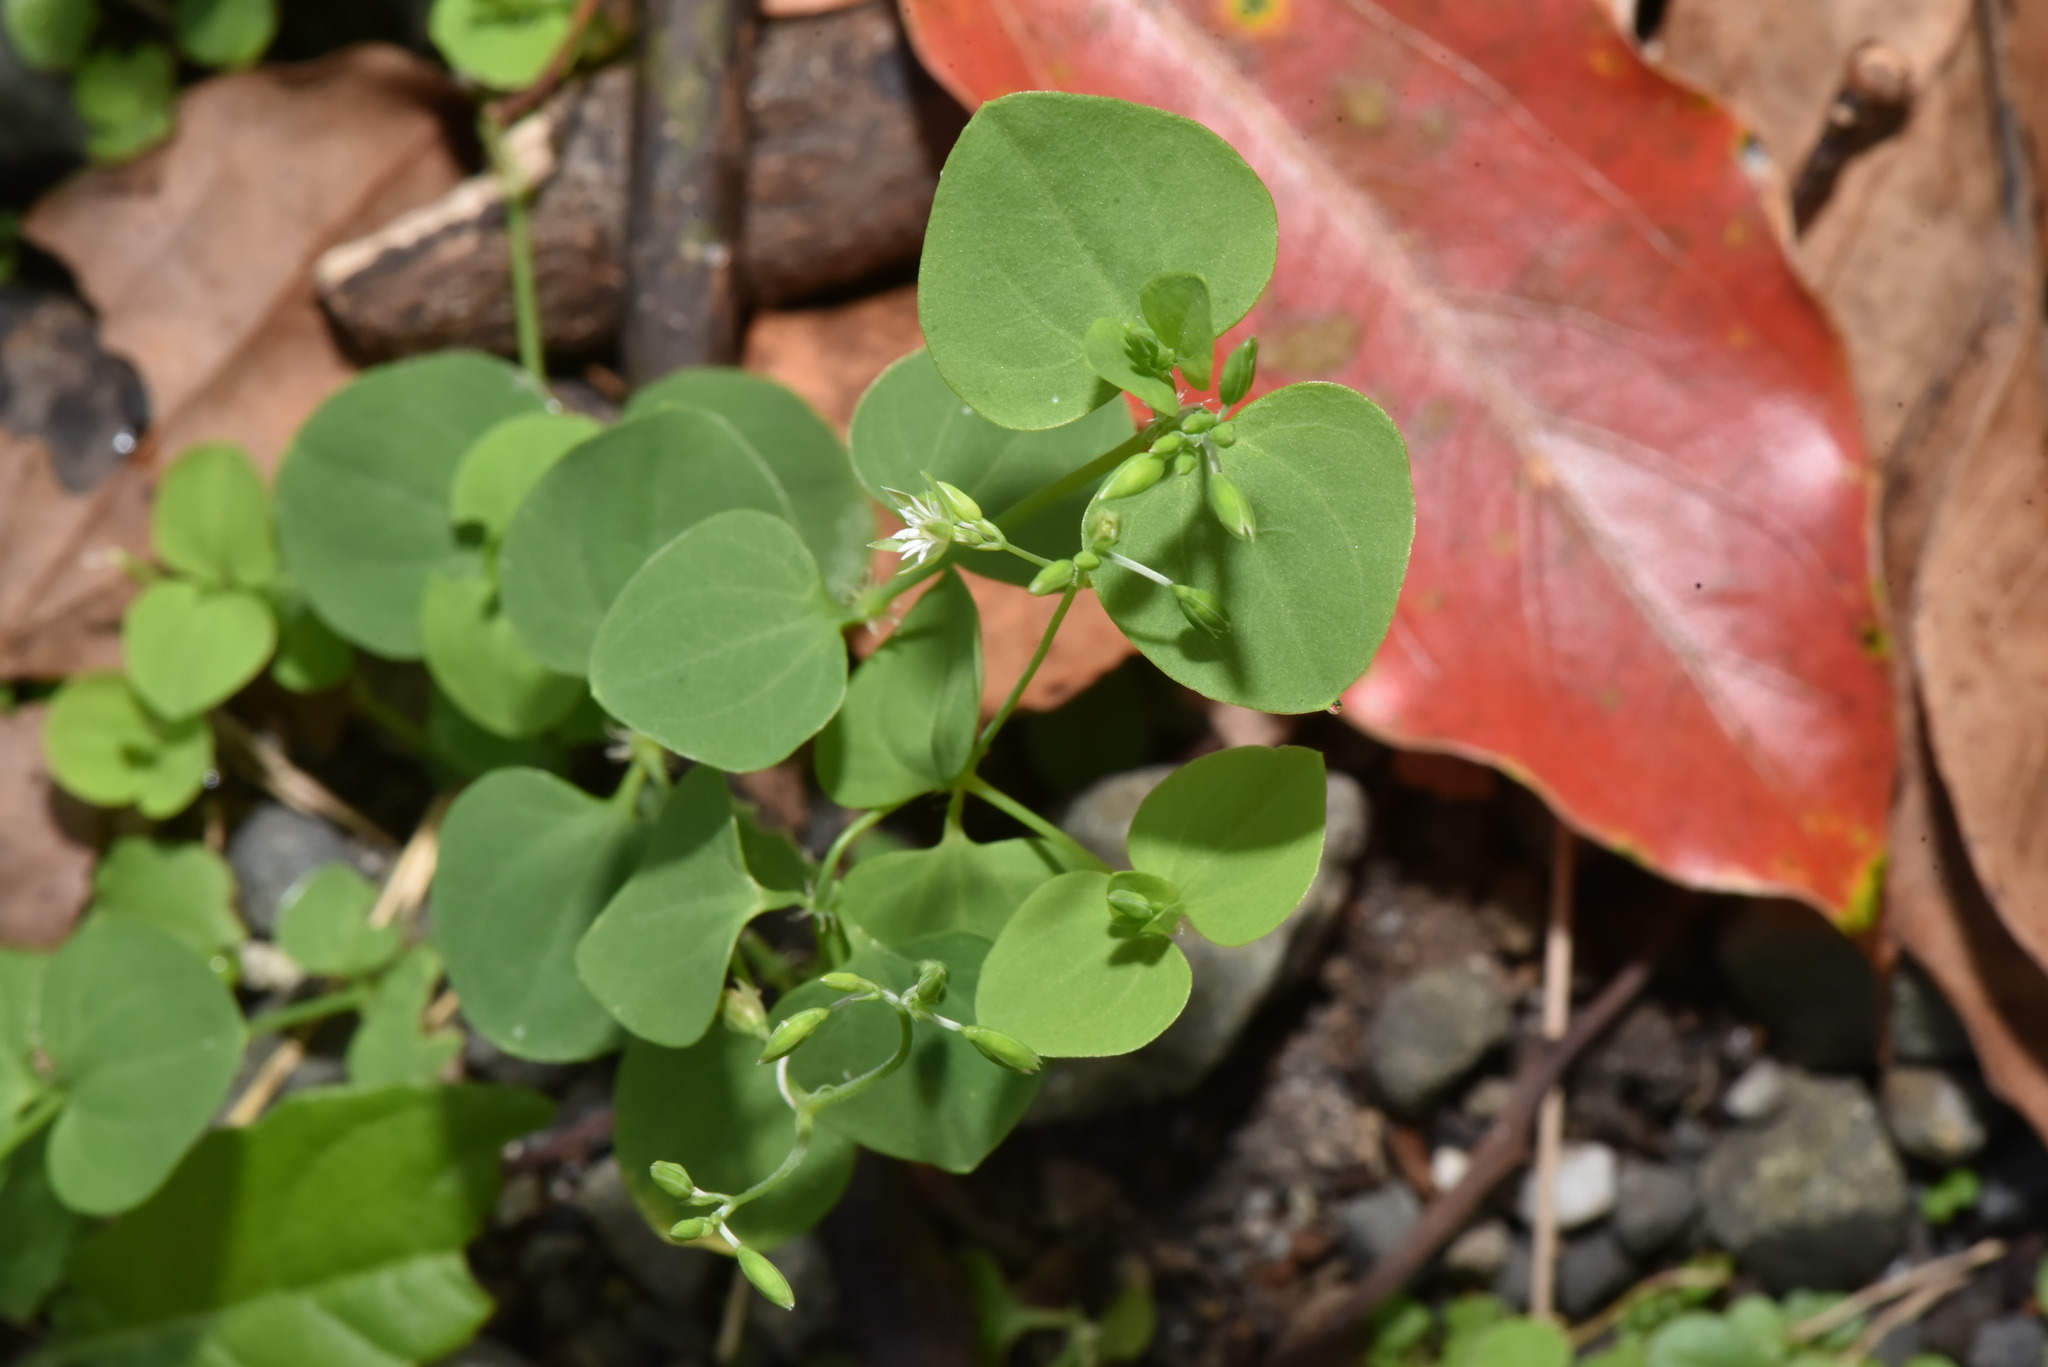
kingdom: Plantae
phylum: Tracheophyta
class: Magnoliopsida
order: Caryophyllales
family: Caryophyllaceae
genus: Drymaria
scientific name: Drymaria cordata
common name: Whitesnow
